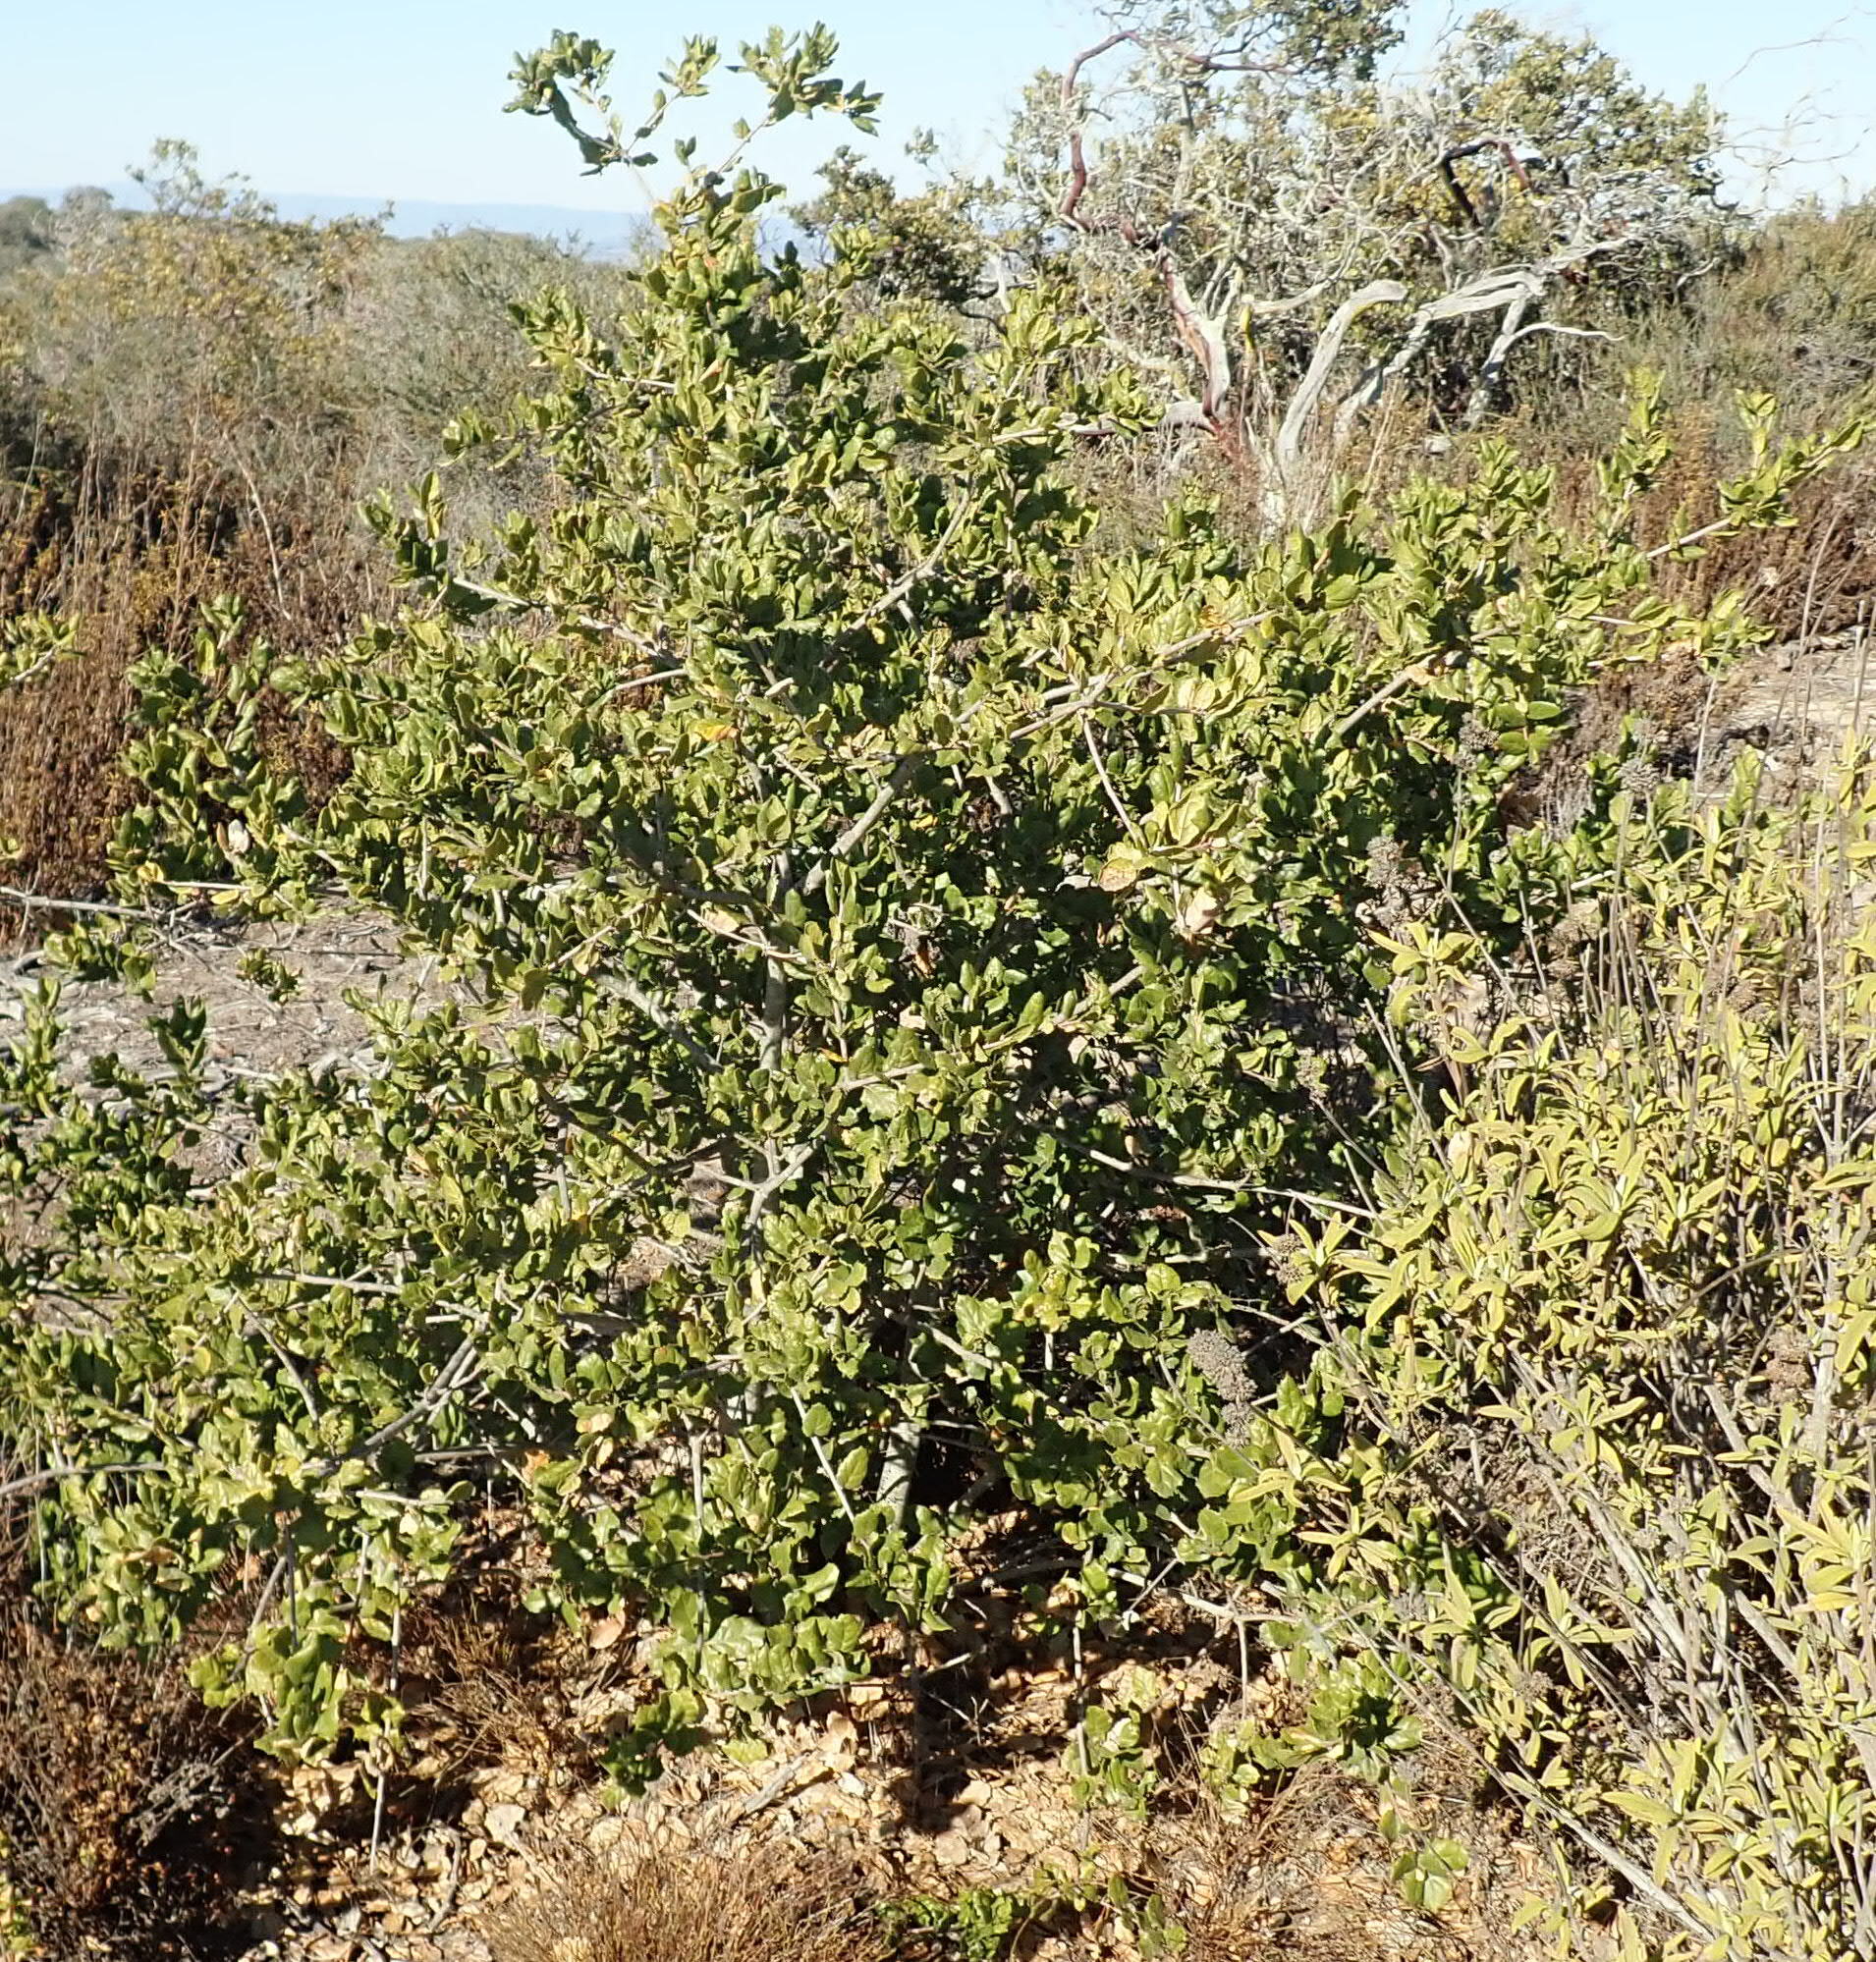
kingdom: Plantae
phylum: Tracheophyta
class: Magnoliopsida
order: Fagales
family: Fagaceae
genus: Quercus
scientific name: Quercus agrifolia
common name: California live oak
